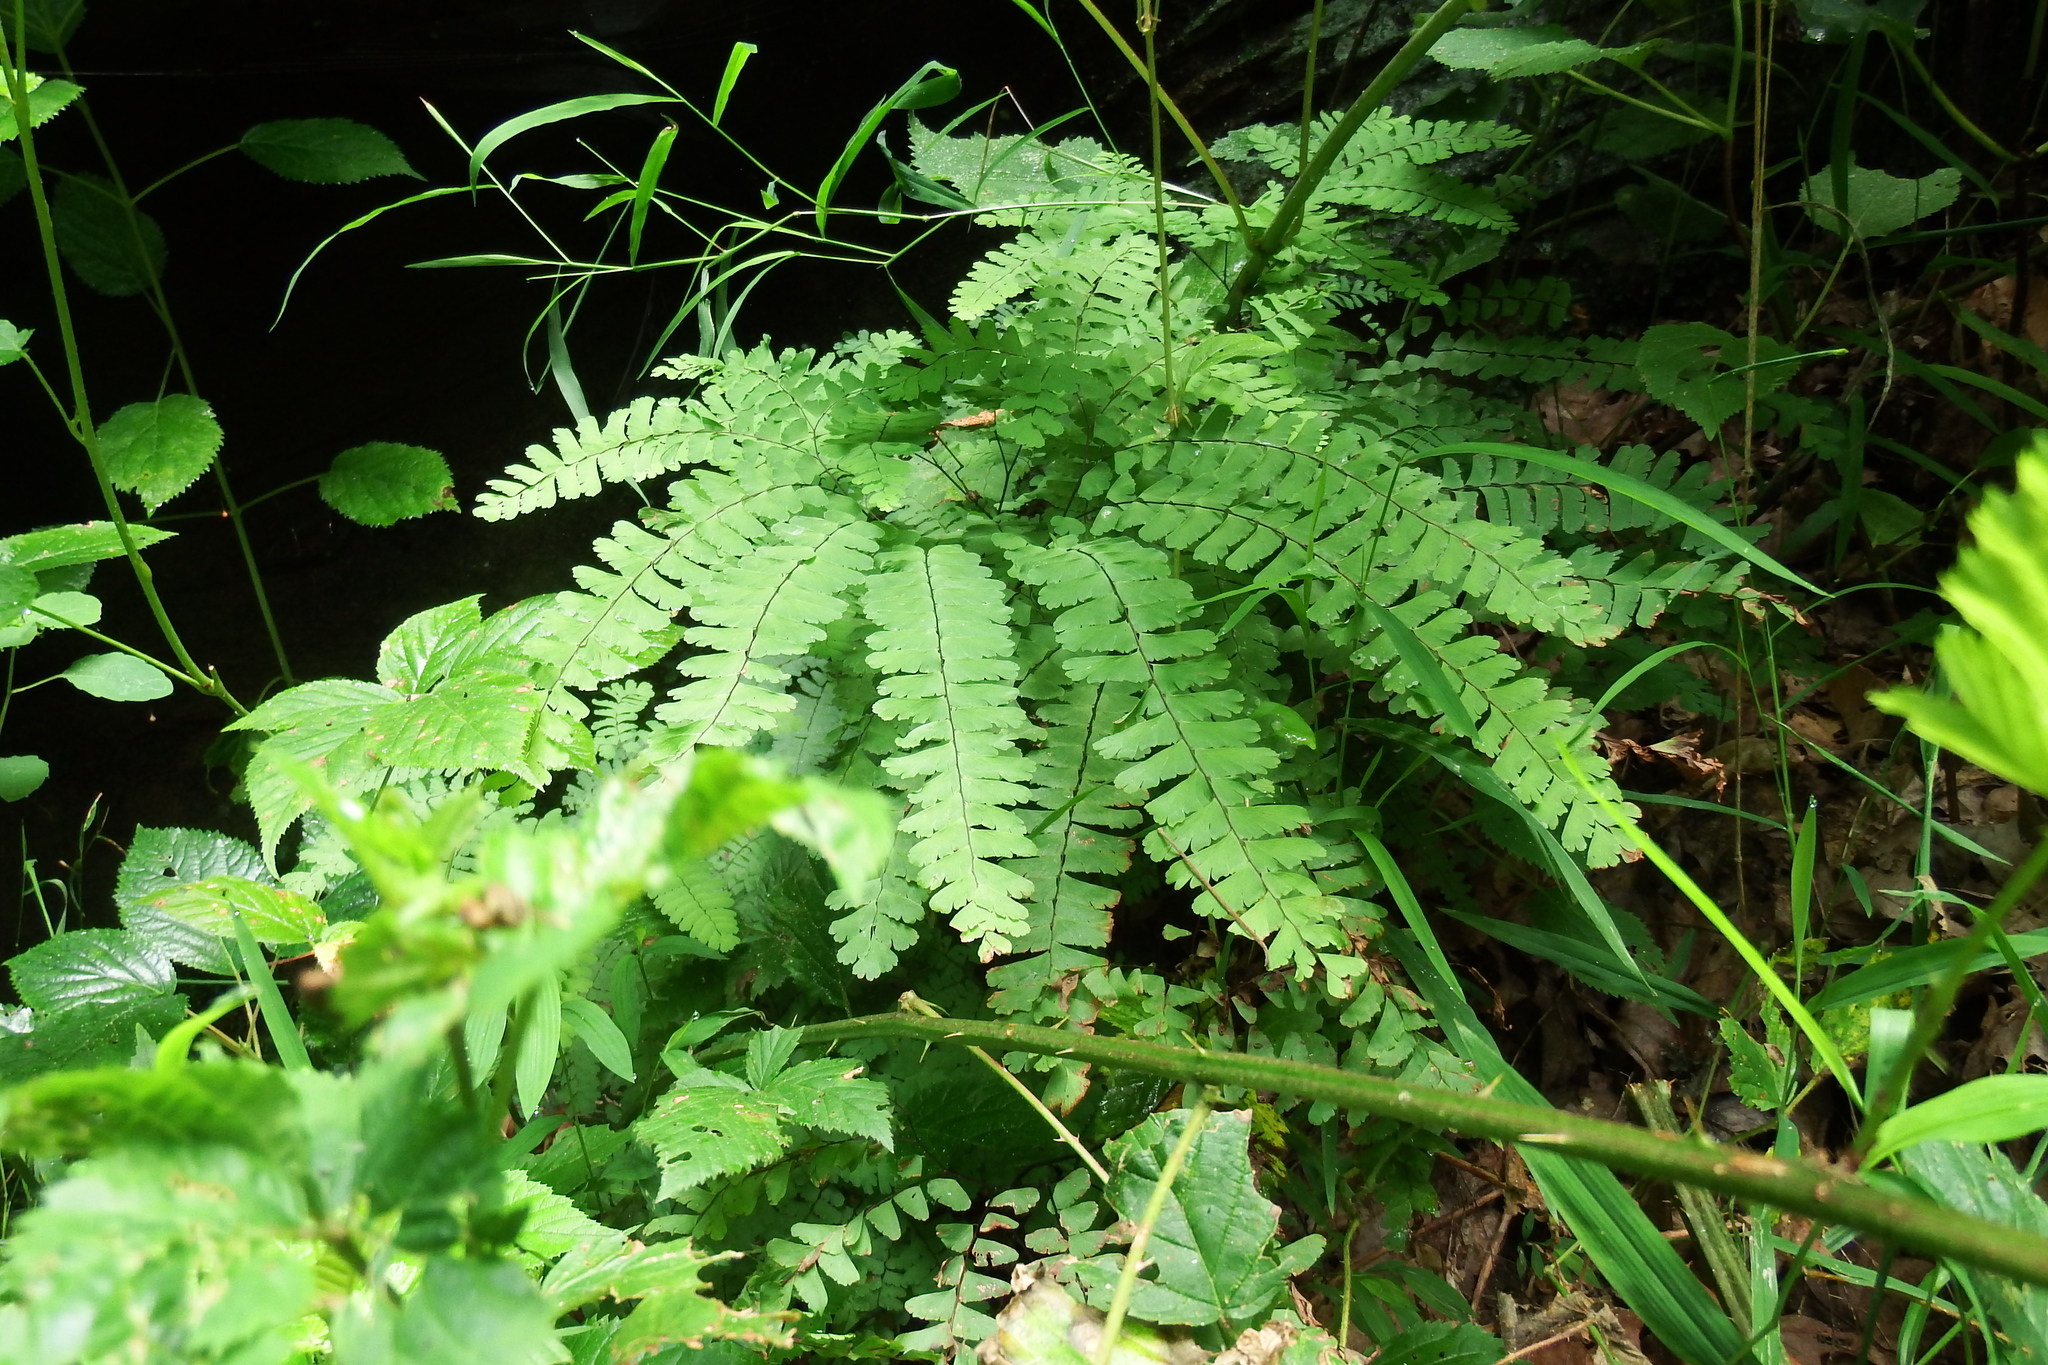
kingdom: Plantae
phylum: Tracheophyta
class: Polypodiopsida
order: Polypodiales
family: Pteridaceae
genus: Adiantum
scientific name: Adiantum pedatum
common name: Five-finger fern
